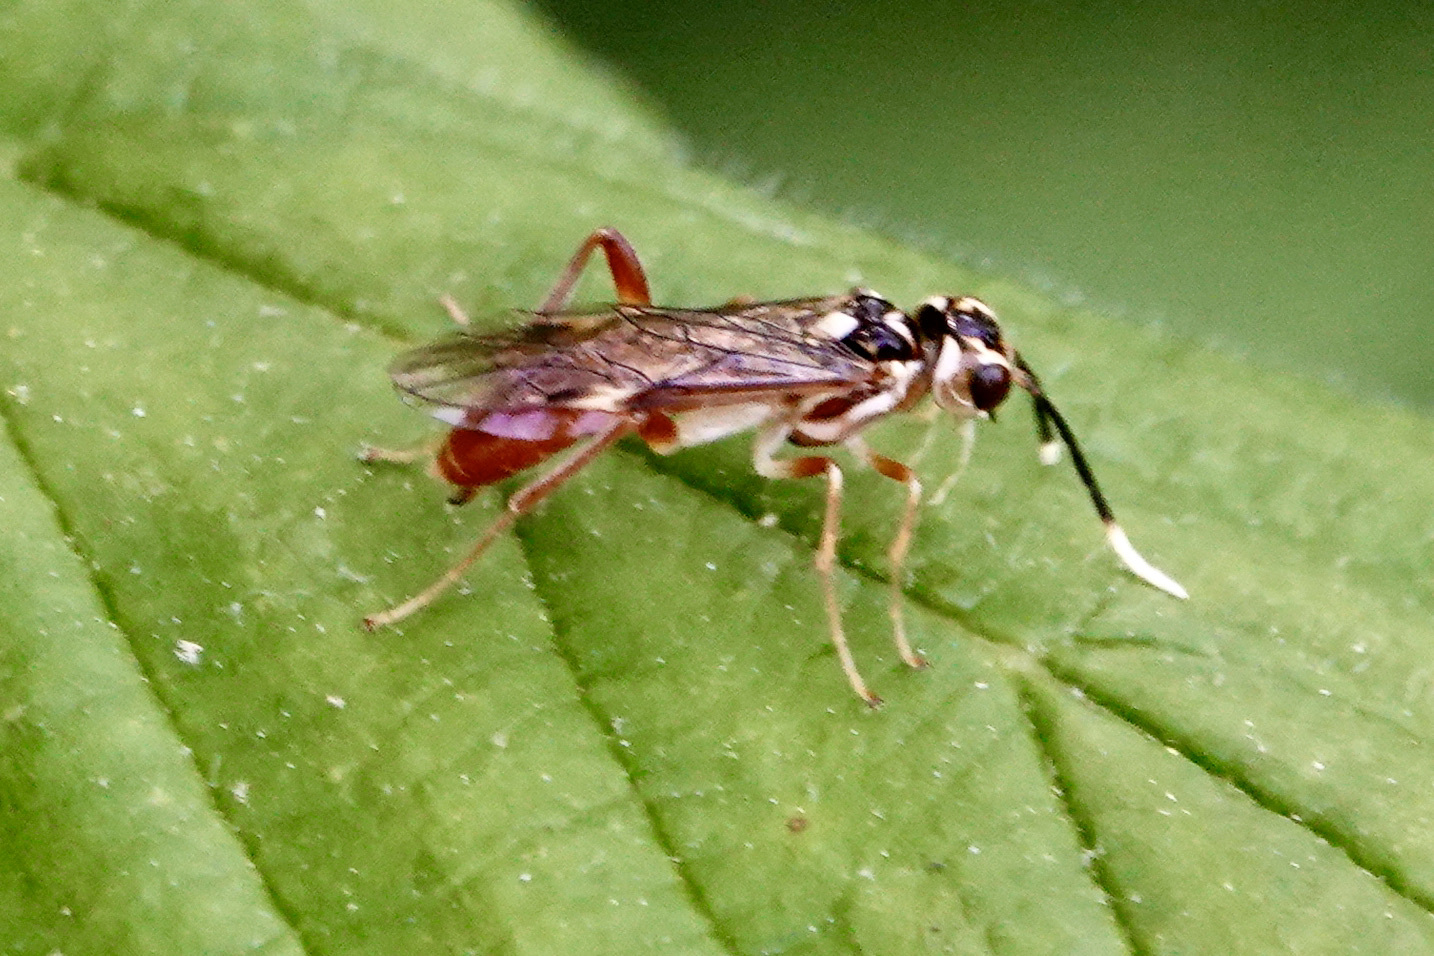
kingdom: Animalia
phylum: Arthropoda
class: Insecta
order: Hymenoptera
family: Tenthredinidae
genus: Taxonus
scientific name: Taxonus pallidicornis
